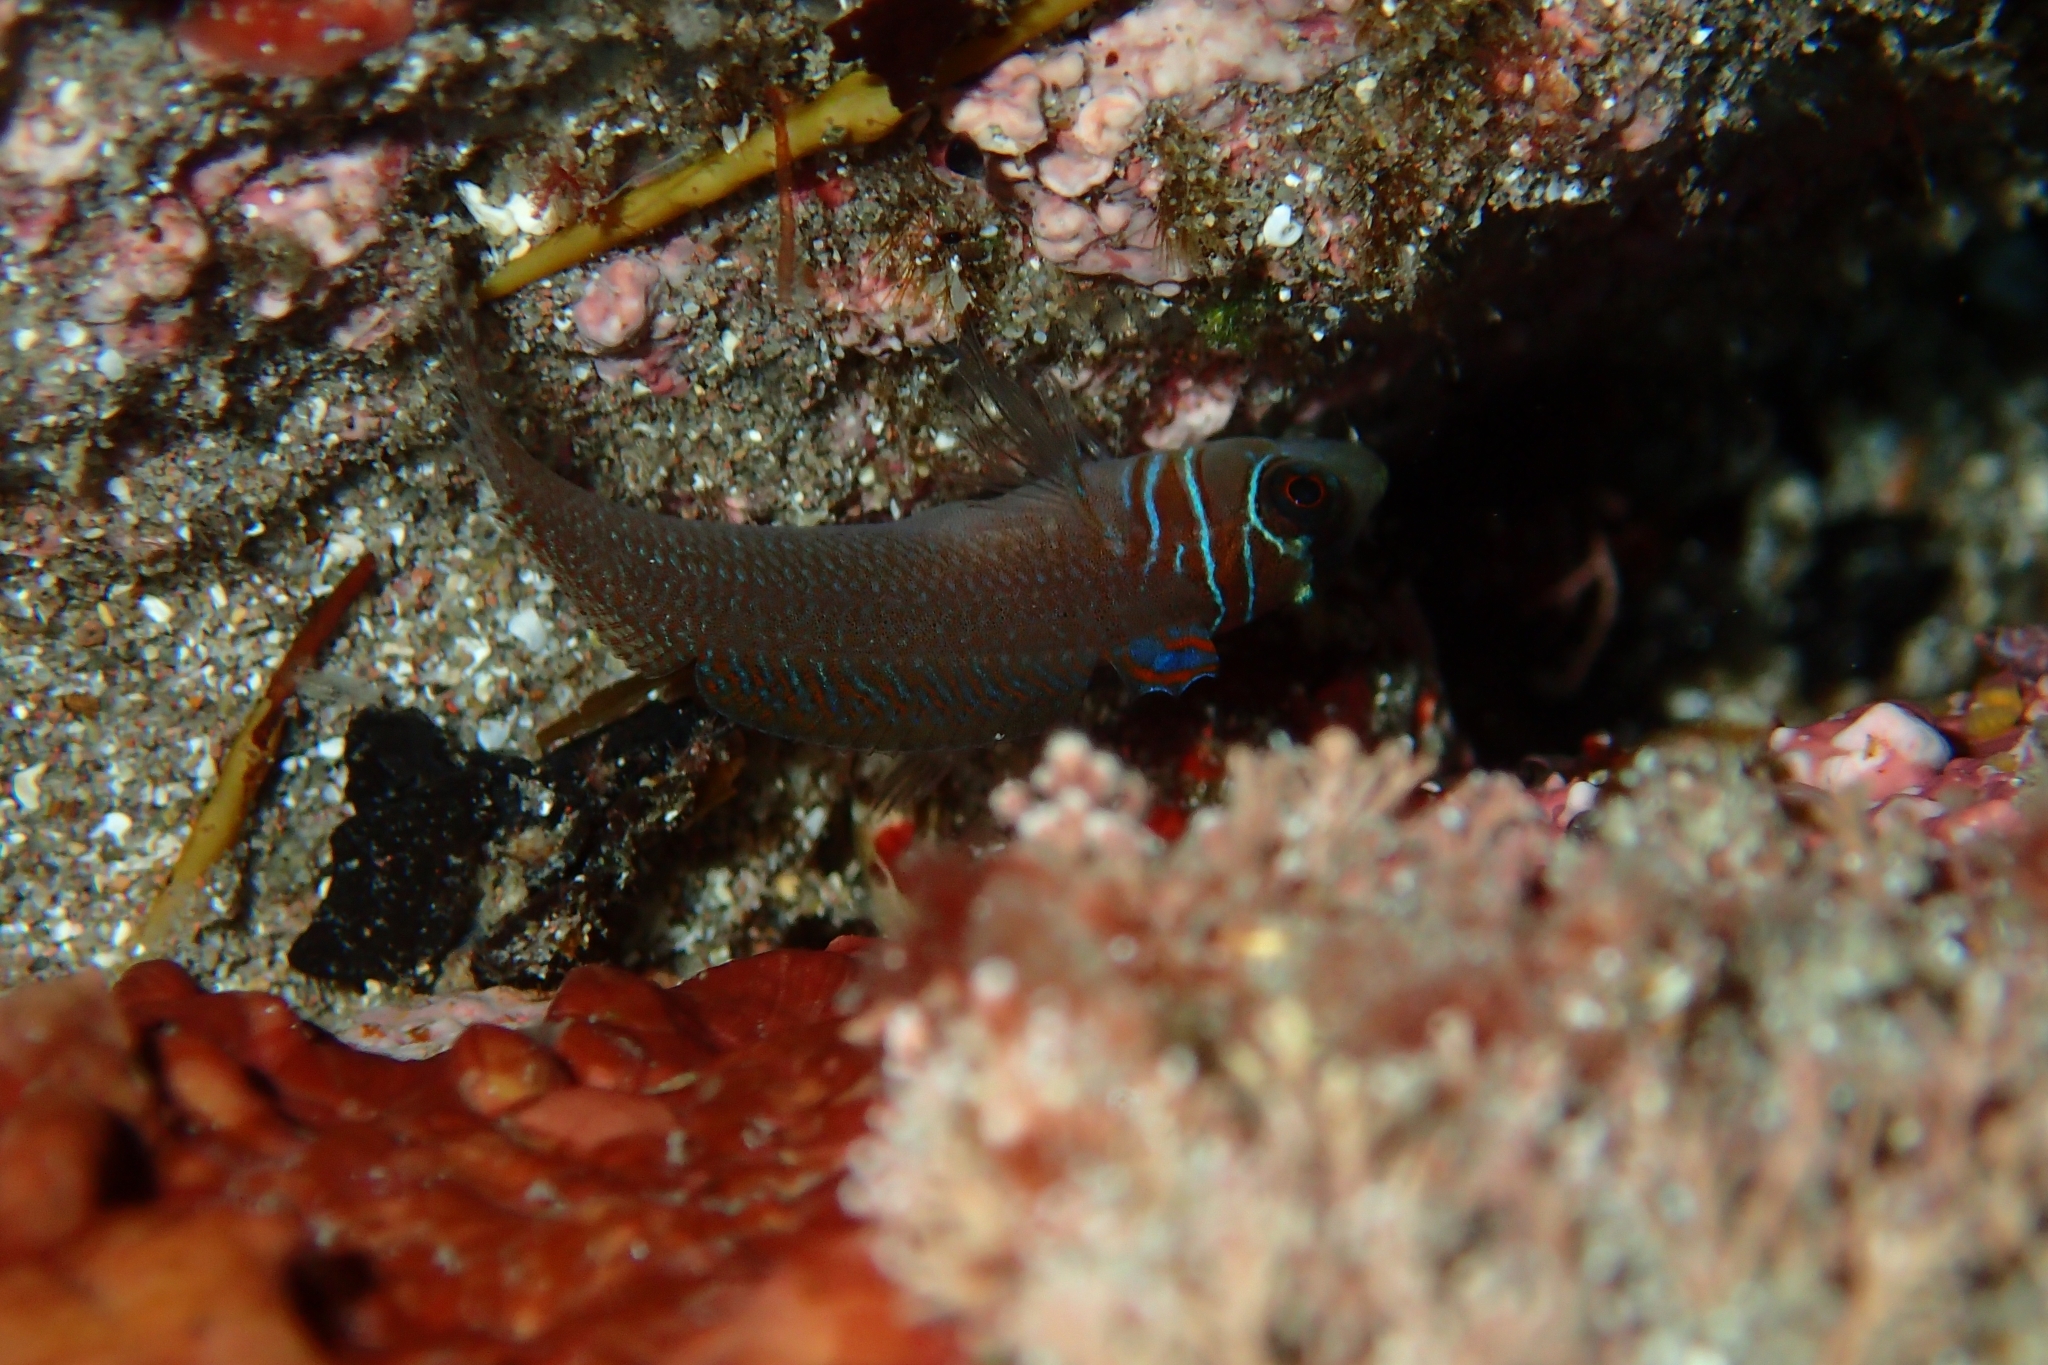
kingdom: Animalia
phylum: Chordata
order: Perciformes
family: Tripterygiidae
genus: Ruanoho
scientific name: Ruanoho whero
